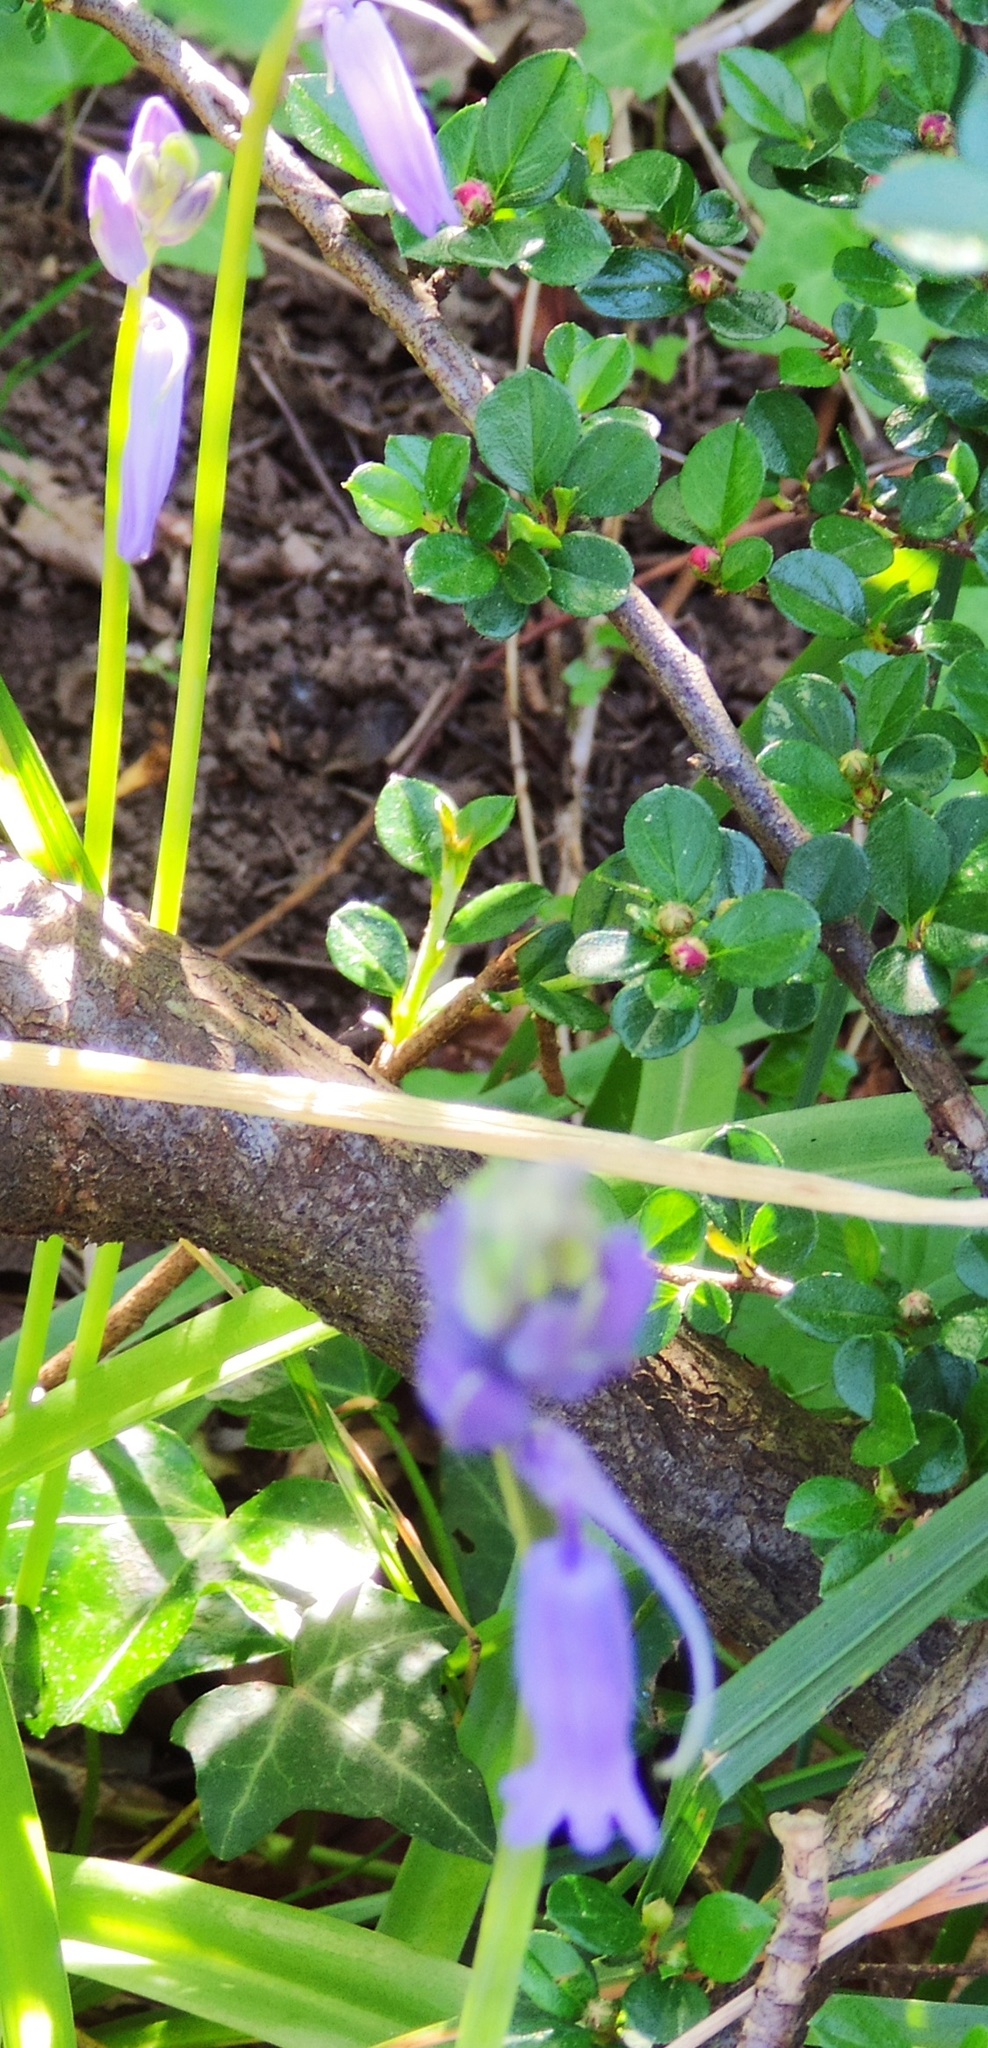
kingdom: Plantae
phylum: Tracheophyta
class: Liliopsida
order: Asparagales
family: Asparagaceae
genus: Hyacinthoides
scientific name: Hyacinthoides non-scripta
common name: Bluebell
